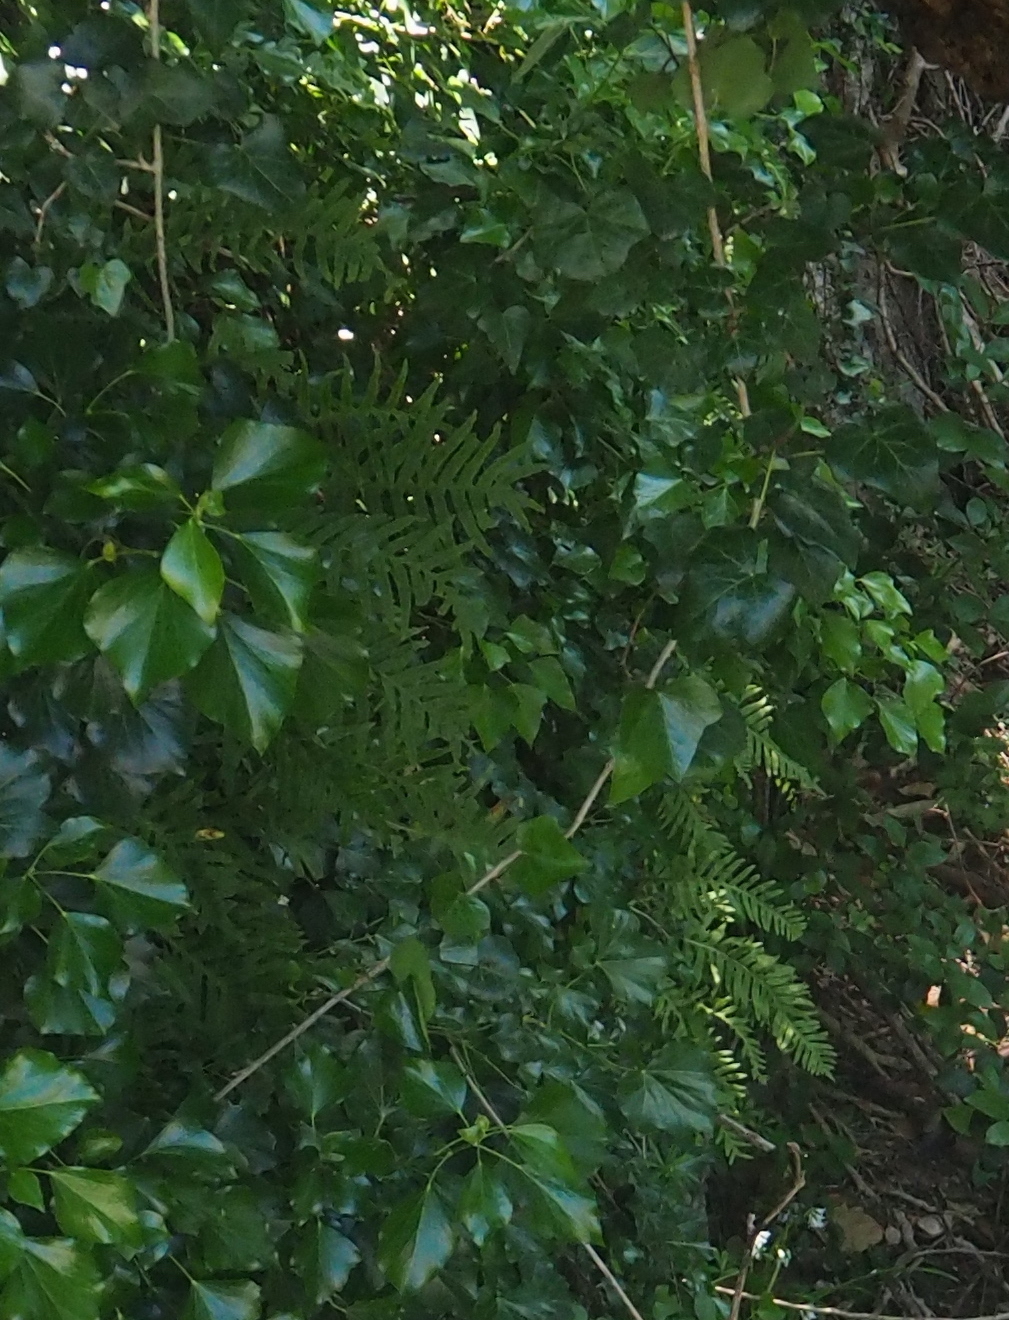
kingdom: Plantae
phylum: Tracheophyta
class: Polypodiopsida
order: Polypodiales
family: Polypodiaceae
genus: Polypodium
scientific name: Polypodium cambricum
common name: Southern polypody
